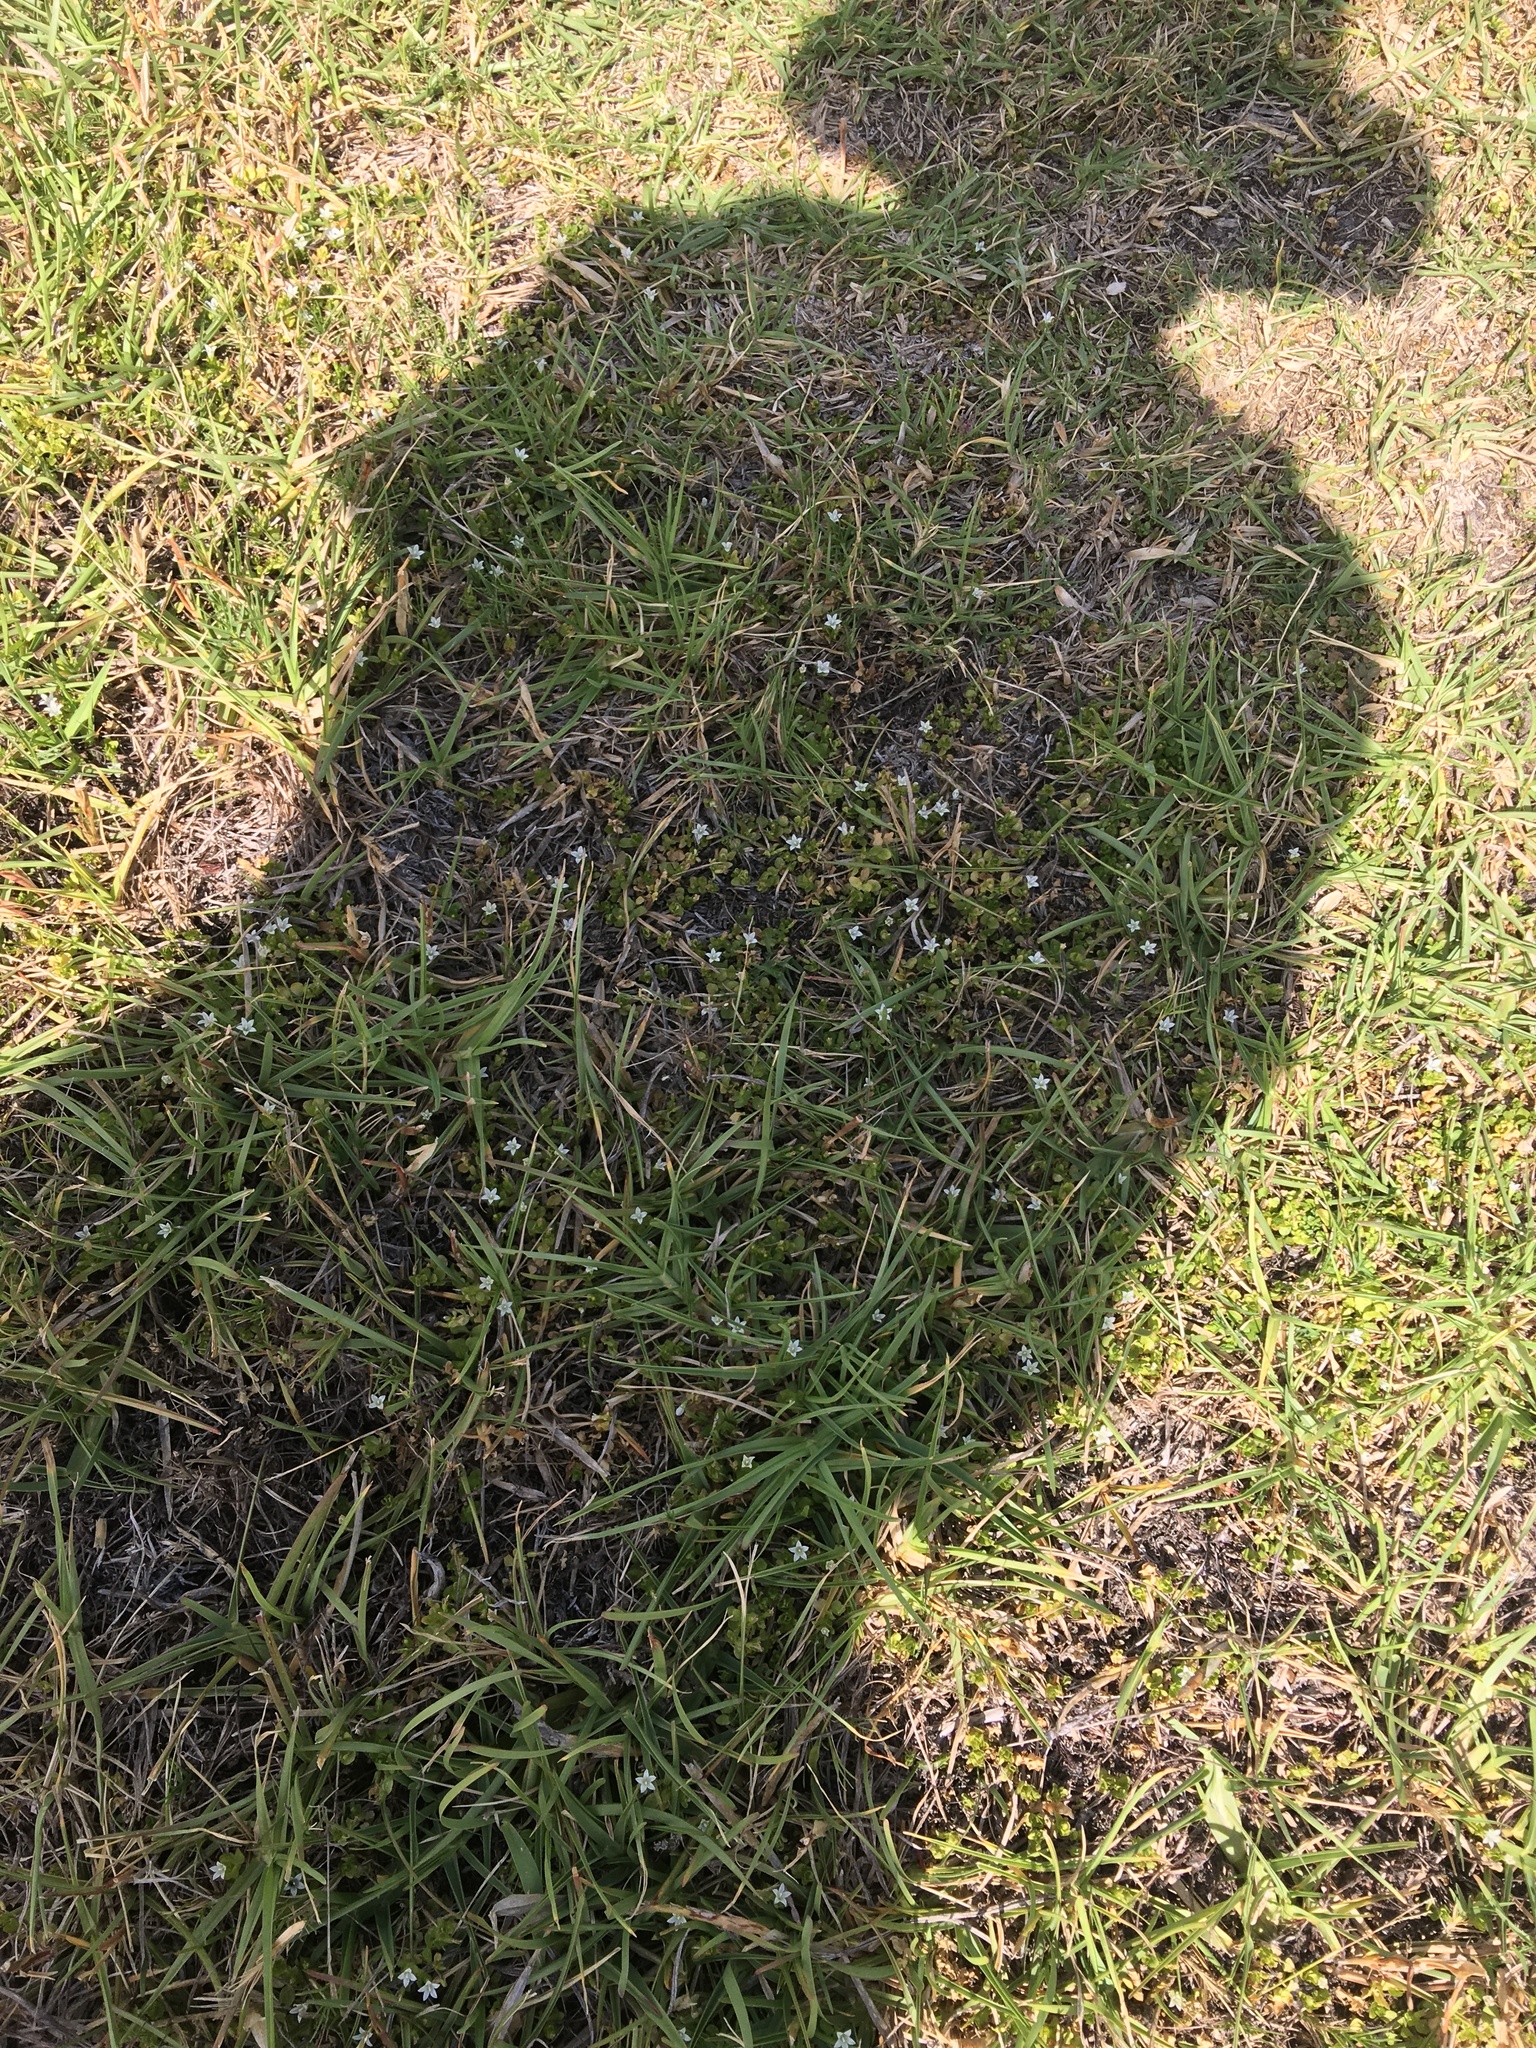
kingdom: Plantae
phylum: Tracheophyta
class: Magnoliopsida
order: Asterales
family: Campanulaceae
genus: Wahlenbergia
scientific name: Wahlenbergia procumbens
